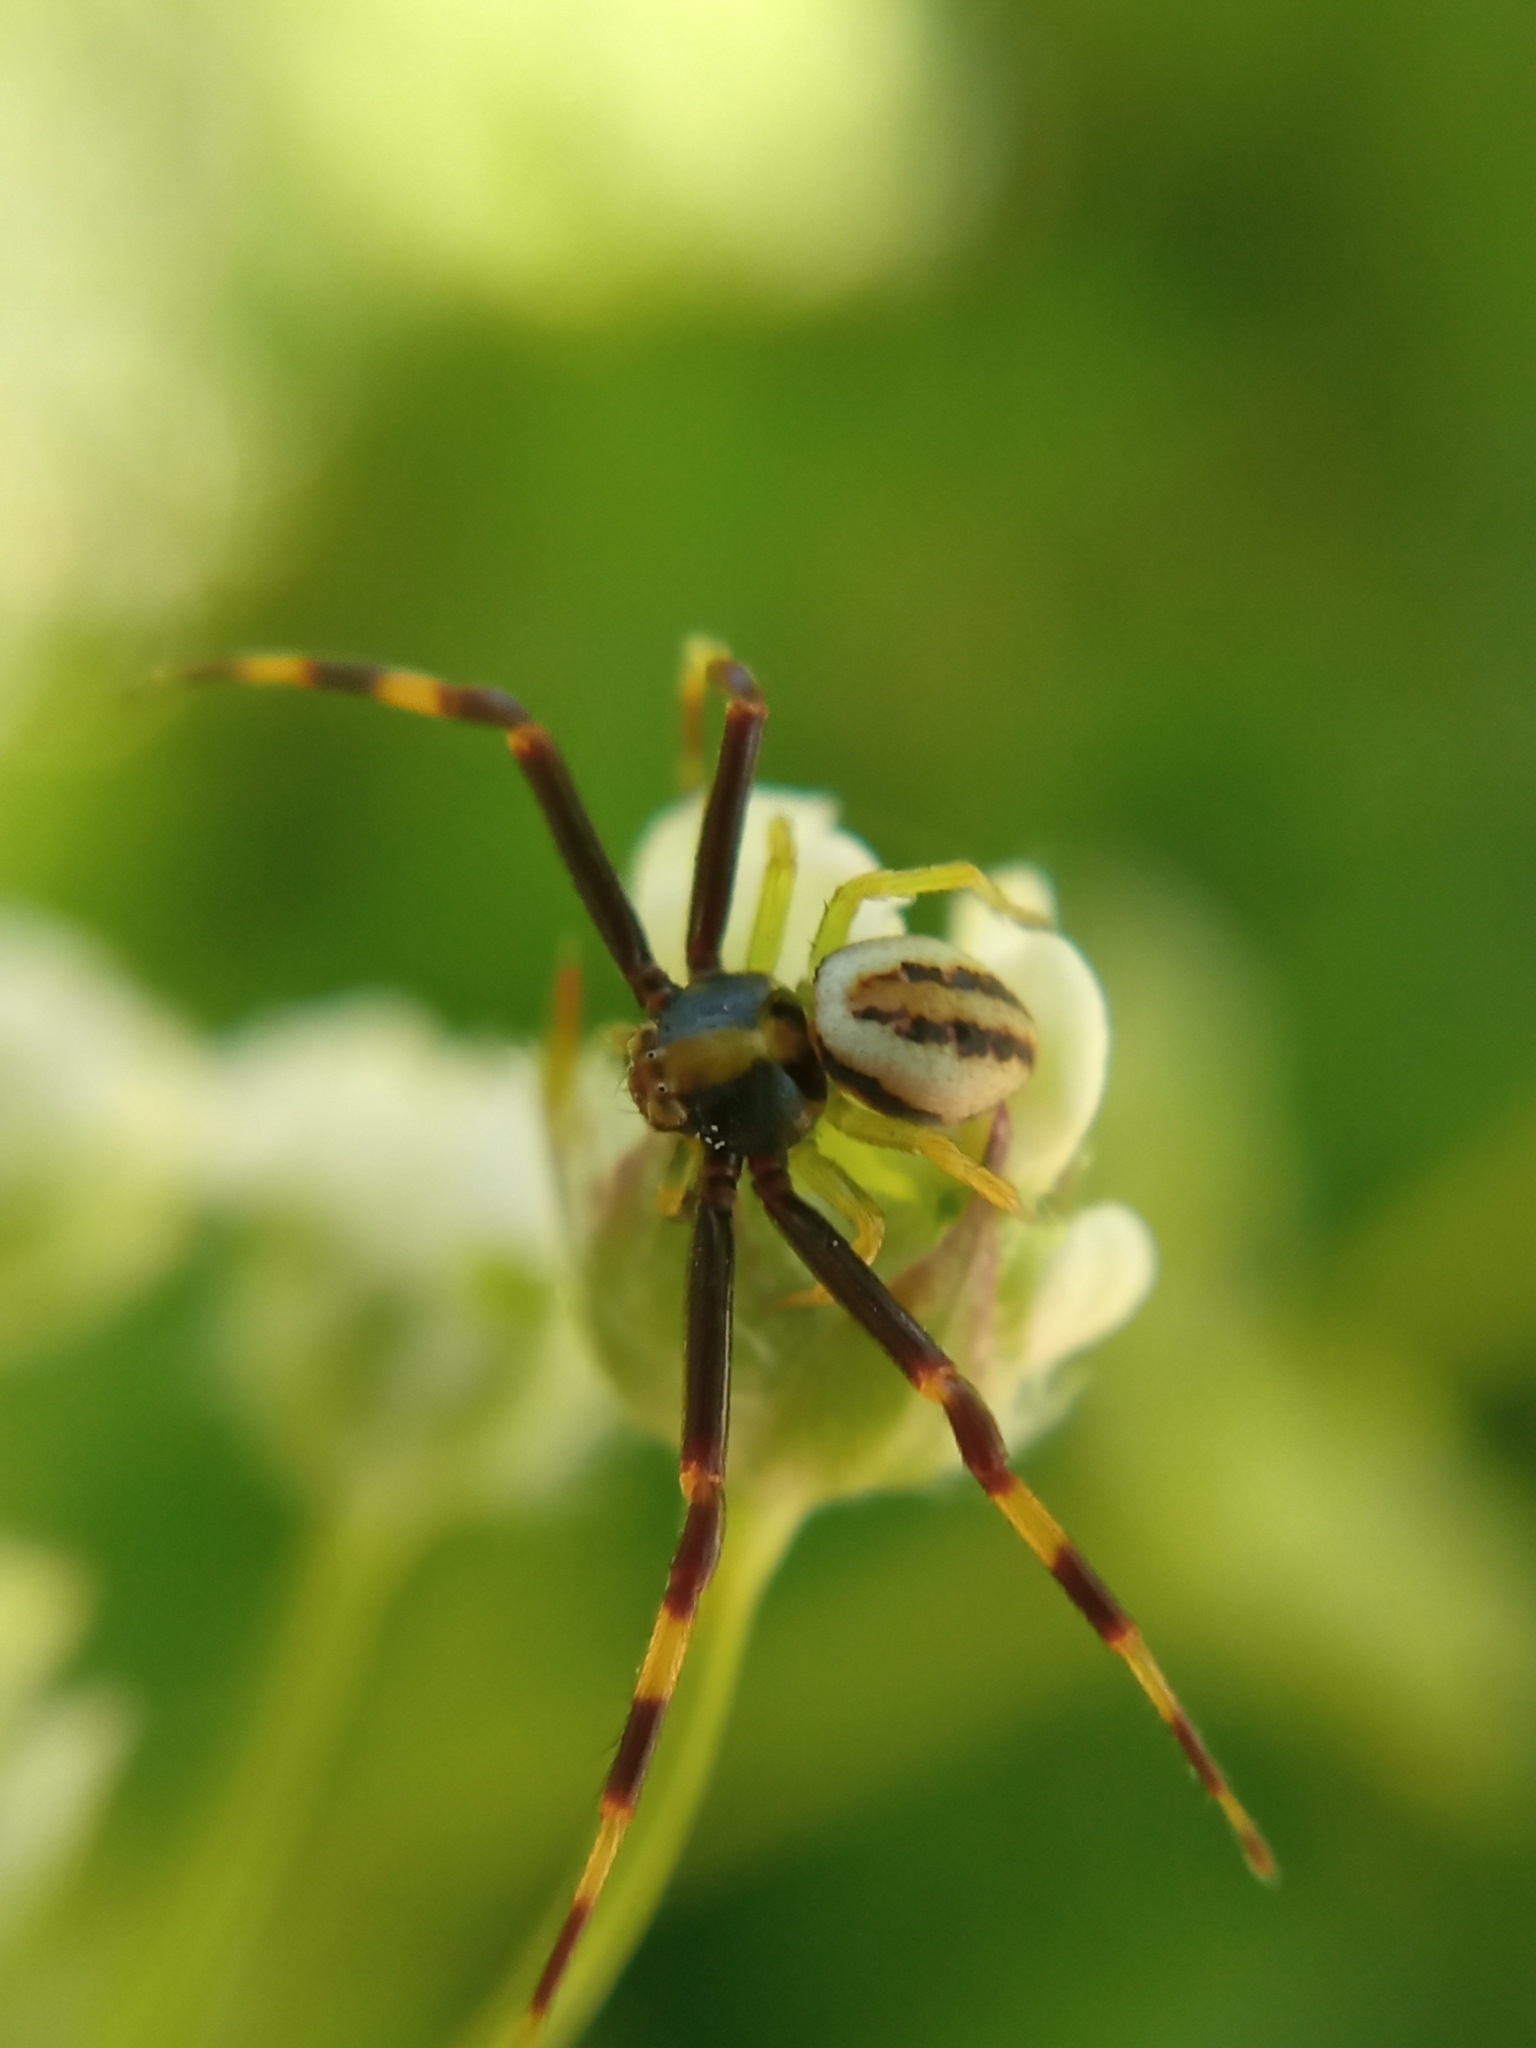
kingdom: Animalia
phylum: Arthropoda
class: Arachnida
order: Araneae
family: Thomisidae
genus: Misumena
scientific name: Misumena vatia
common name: Goldenrod crab spider
